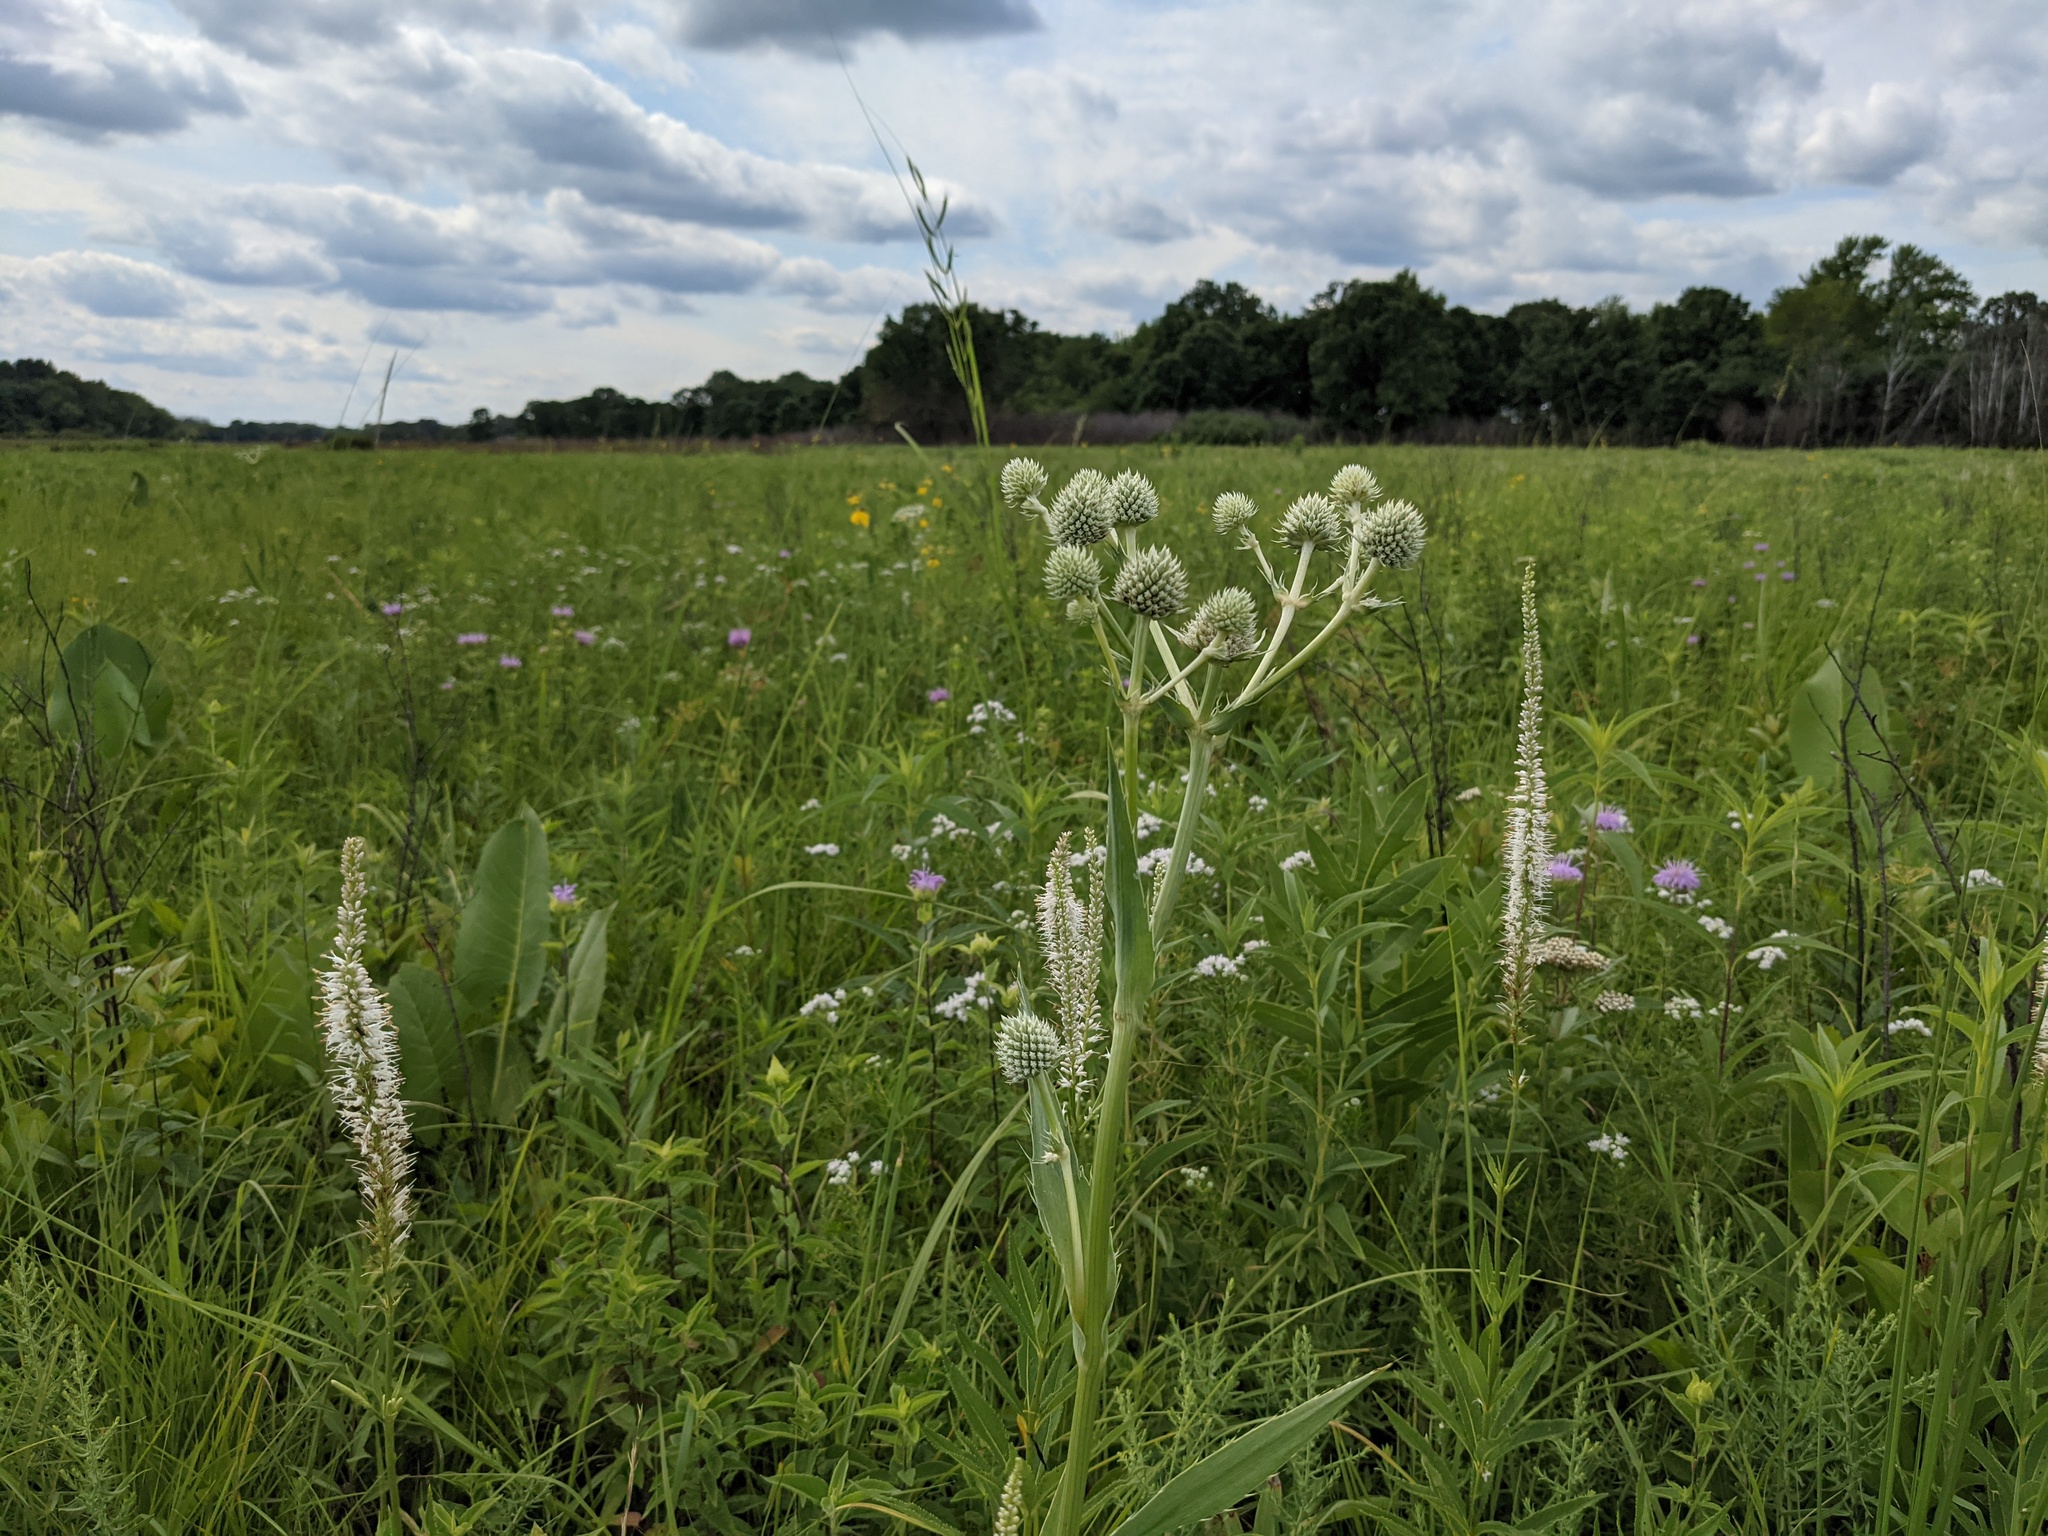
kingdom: Plantae
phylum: Tracheophyta
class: Magnoliopsida
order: Apiales
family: Apiaceae
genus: Eryngium
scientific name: Eryngium yuccifolium
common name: Button eryngo
